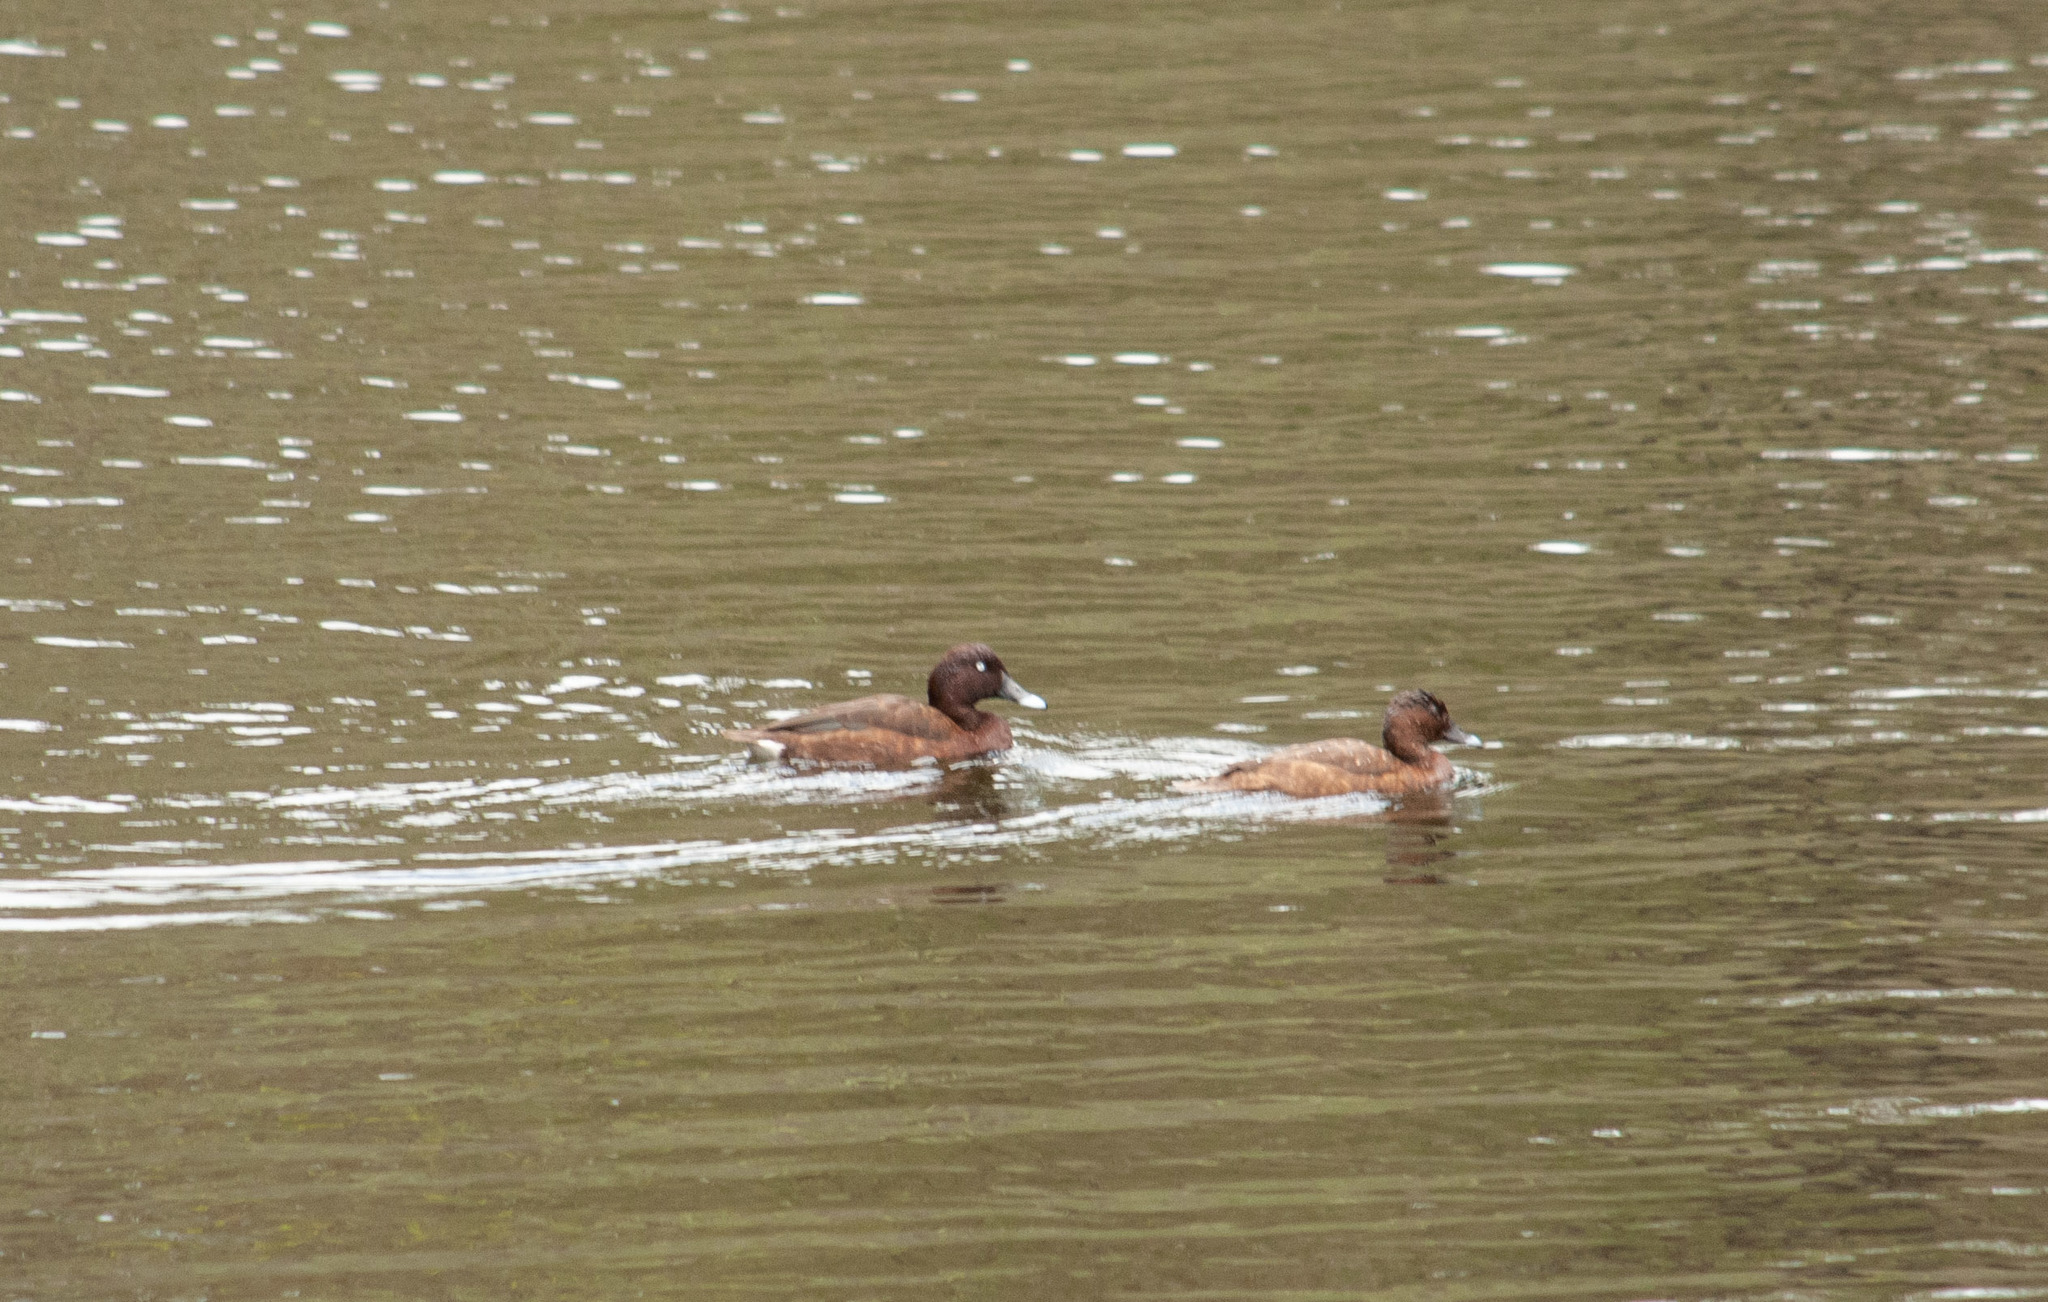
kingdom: Animalia
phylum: Chordata
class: Aves
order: Anseriformes
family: Anatidae
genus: Aythya
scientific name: Aythya australis
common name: Hardhead
